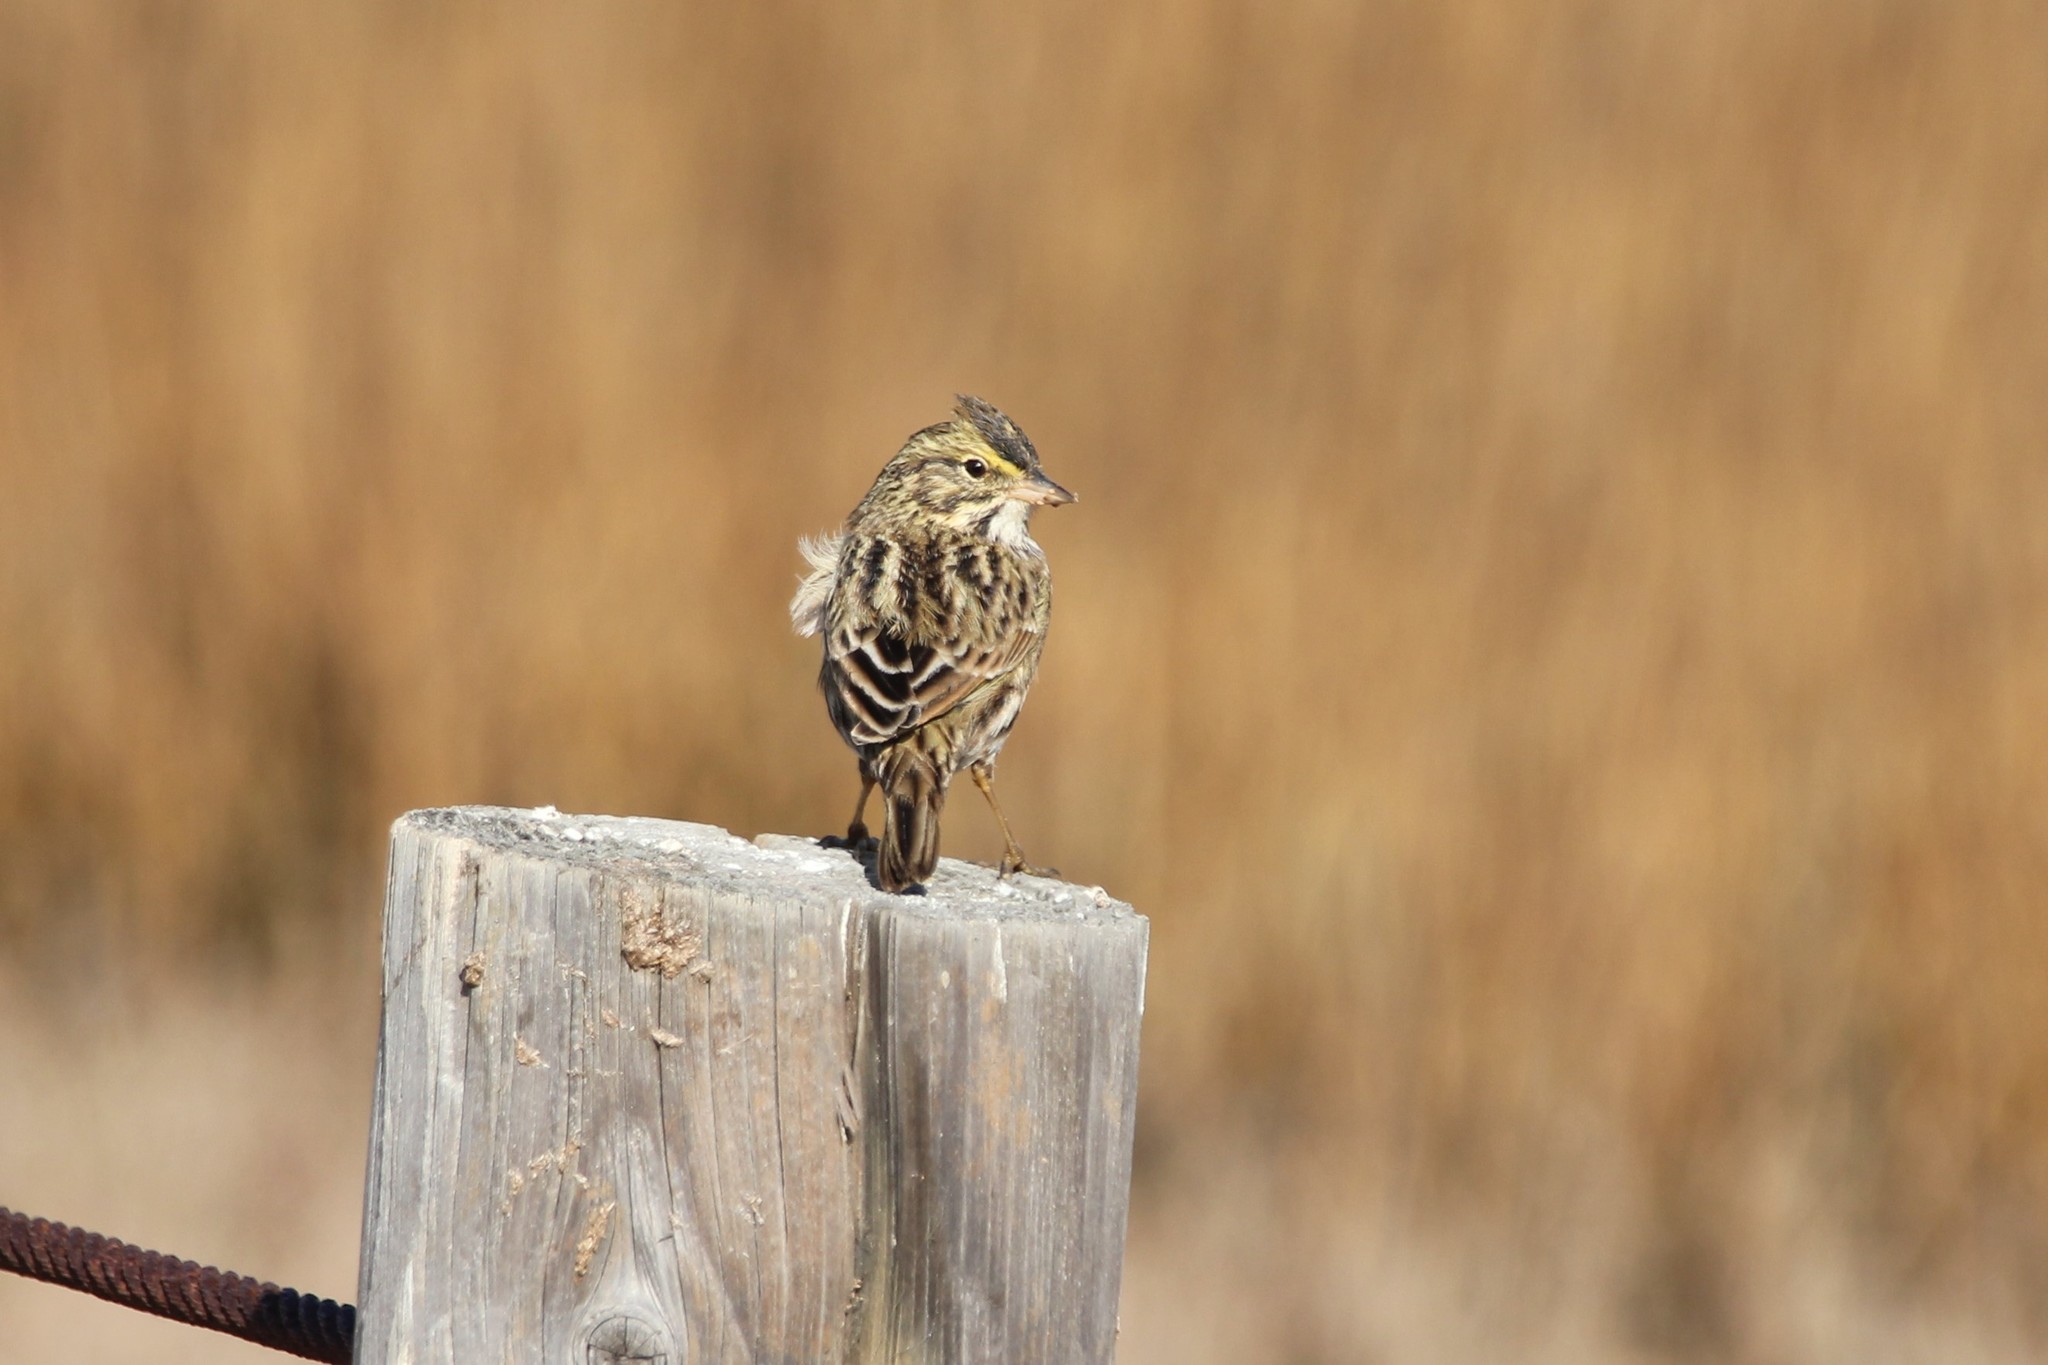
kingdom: Animalia
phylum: Chordata
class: Aves
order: Passeriformes
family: Passerellidae
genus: Passerculus
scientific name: Passerculus sandwichensis
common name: Savannah sparrow
